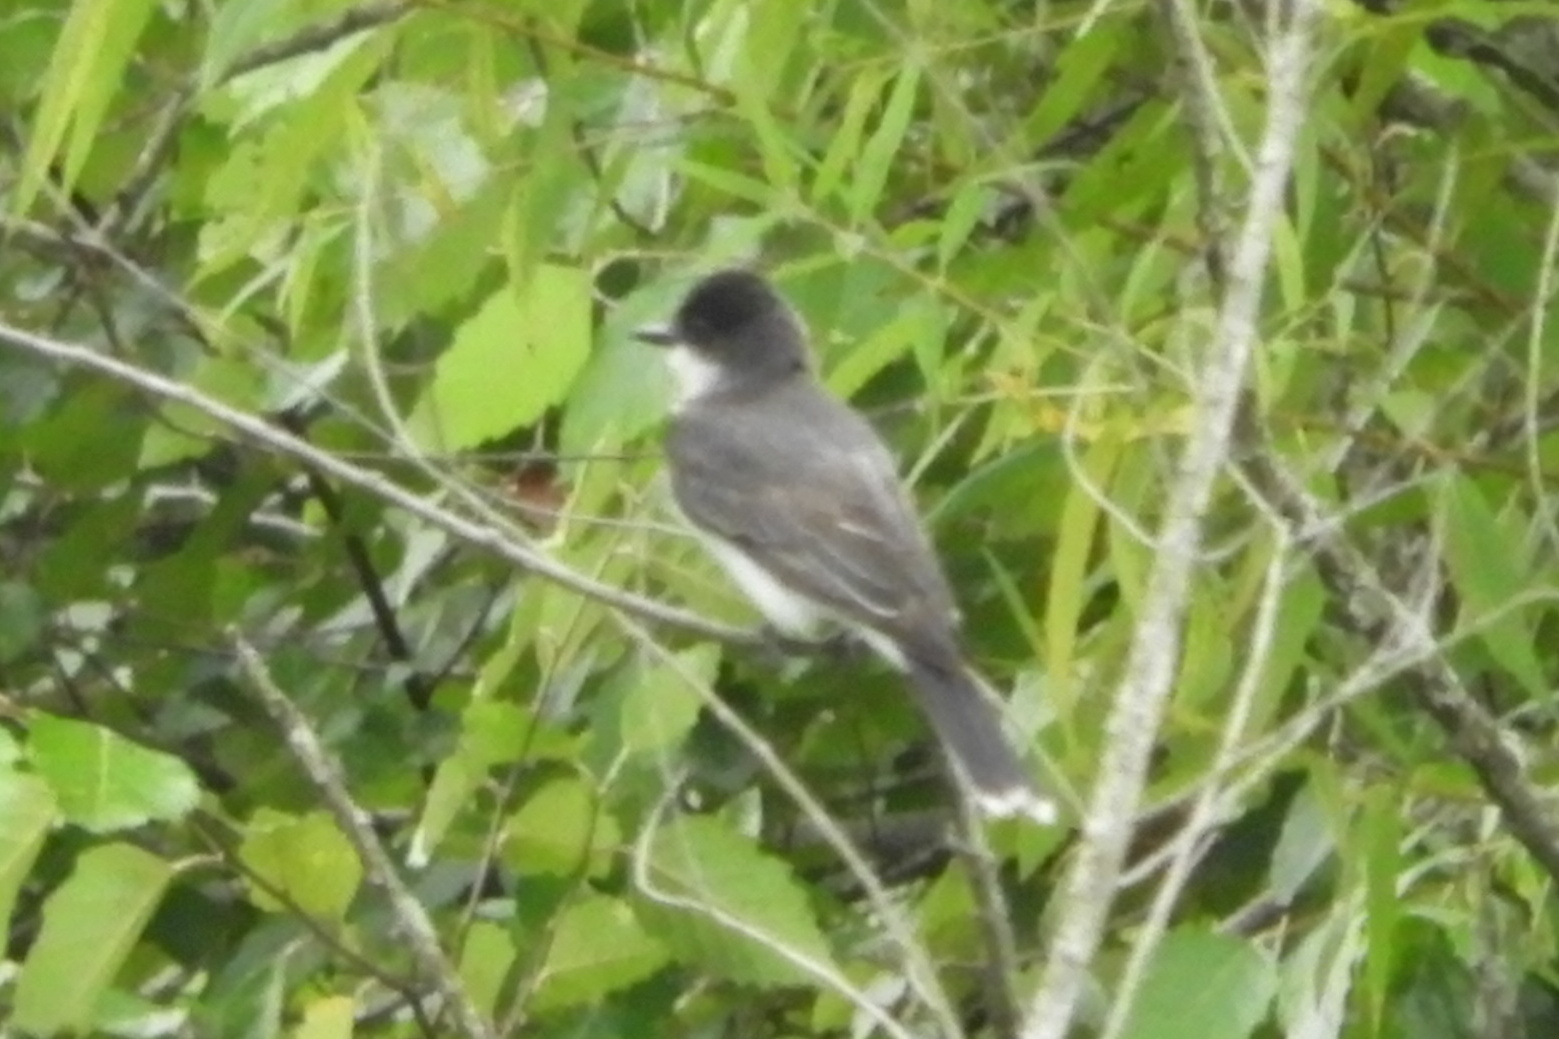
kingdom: Animalia
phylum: Chordata
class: Aves
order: Passeriformes
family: Tyrannidae
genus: Tyrannus
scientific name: Tyrannus tyrannus
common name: Eastern kingbird
